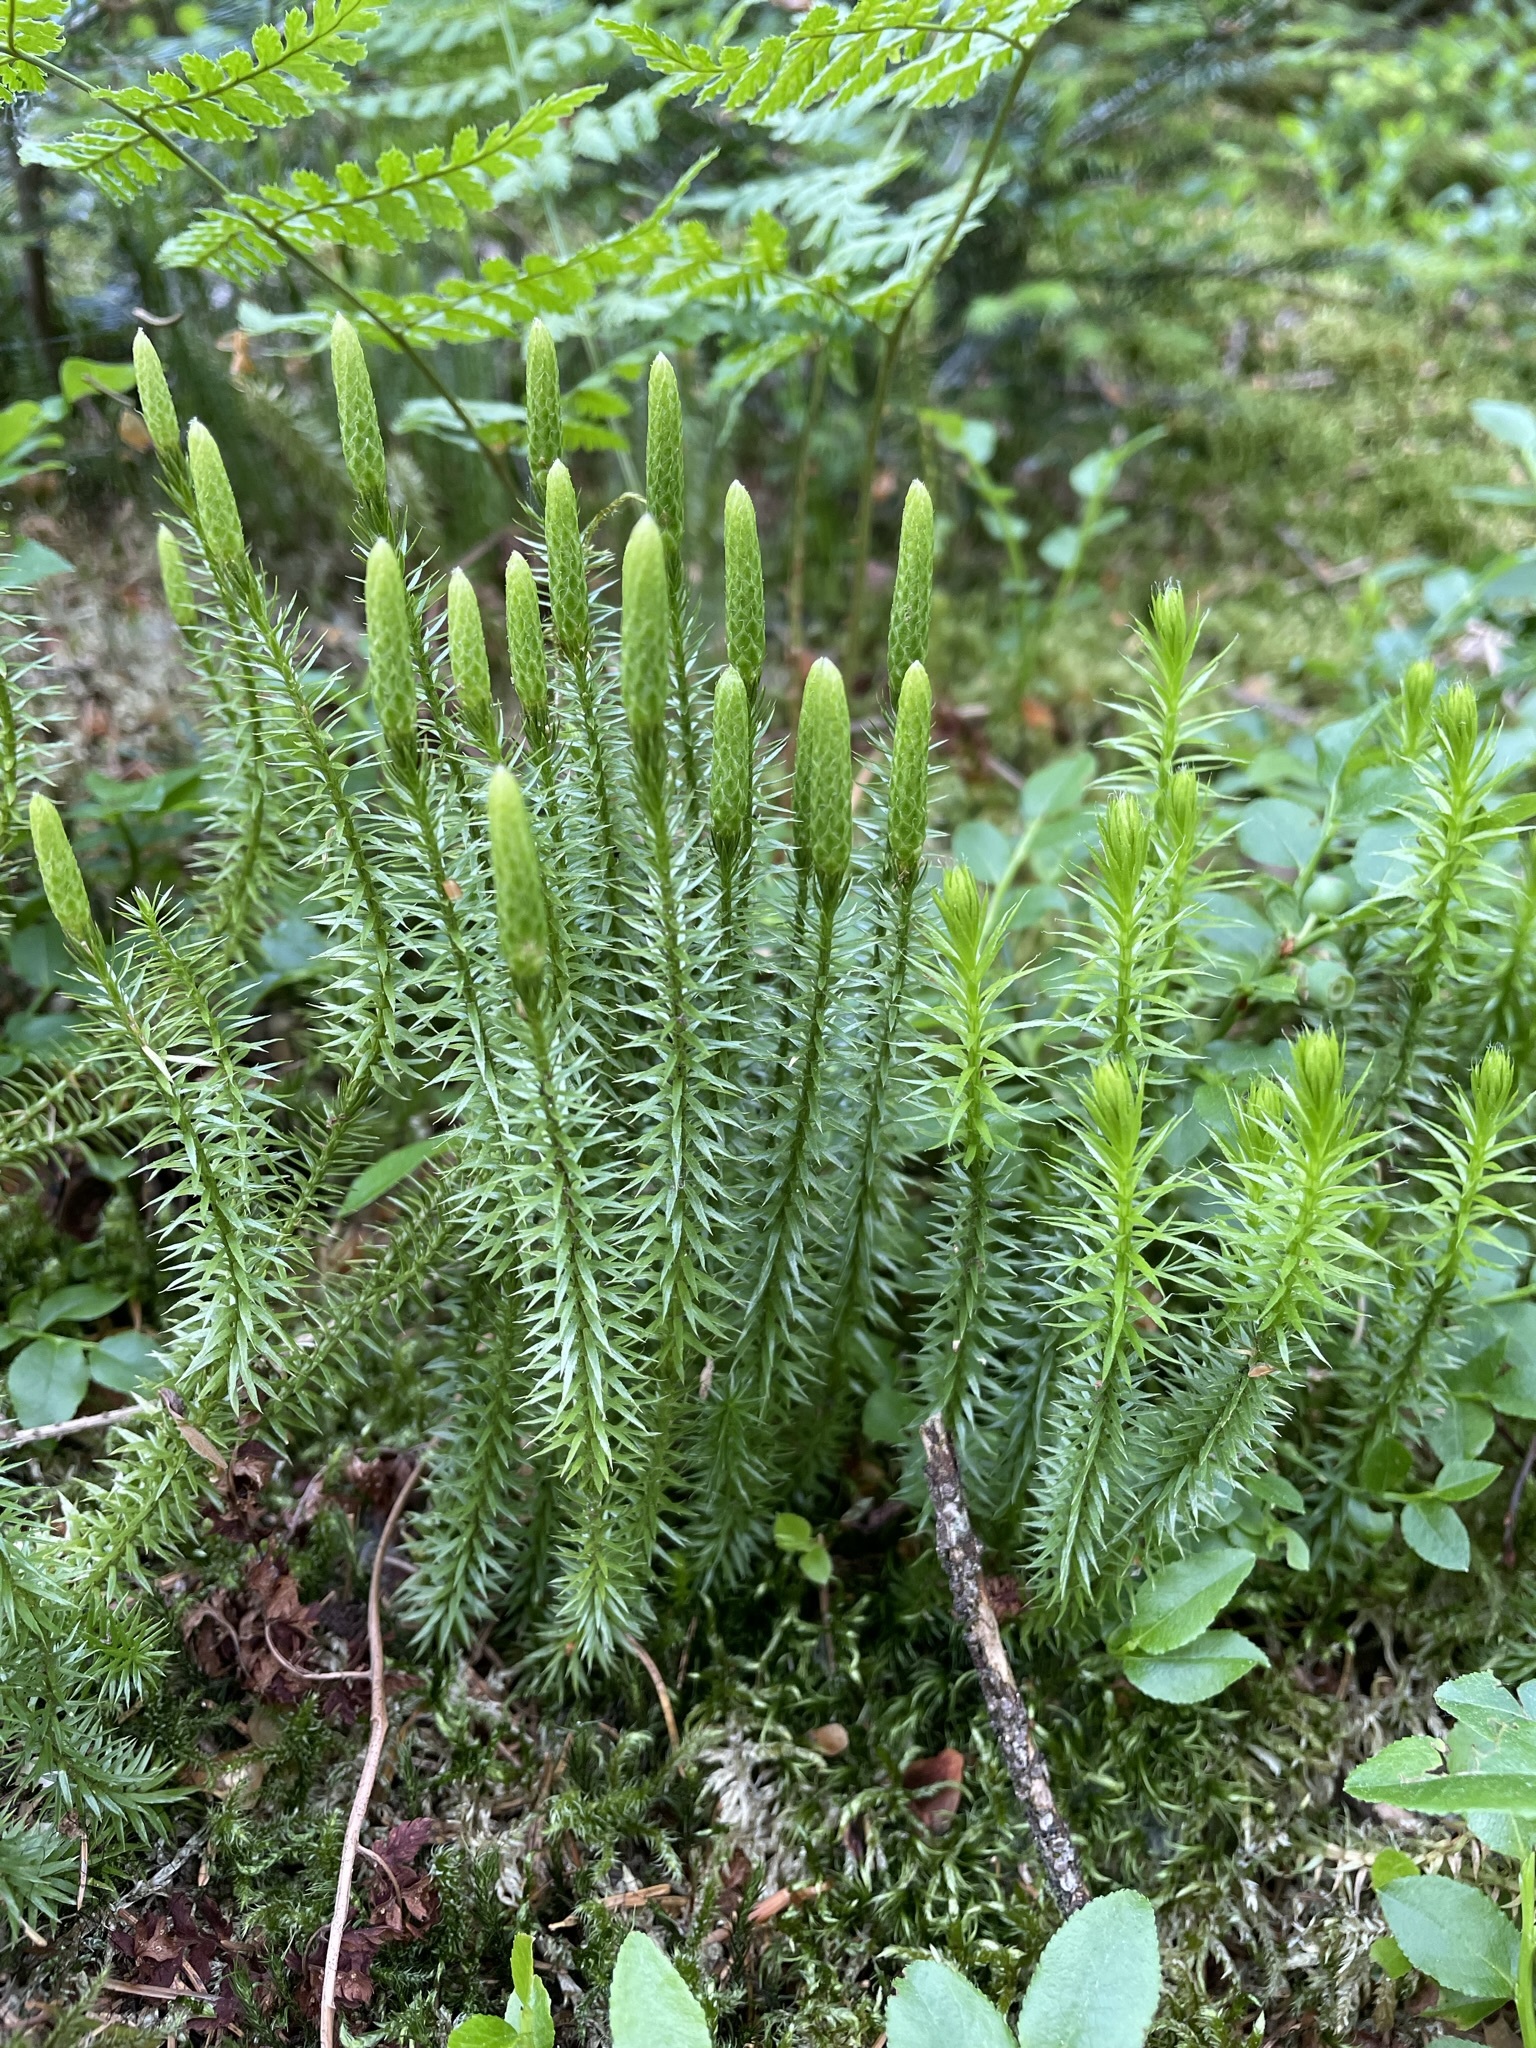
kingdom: Plantae
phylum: Tracheophyta
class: Lycopodiopsida
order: Lycopodiales
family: Lycopodiaceae
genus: Spinulum
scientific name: Spinulum annotinum
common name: Interrupted club-moss
